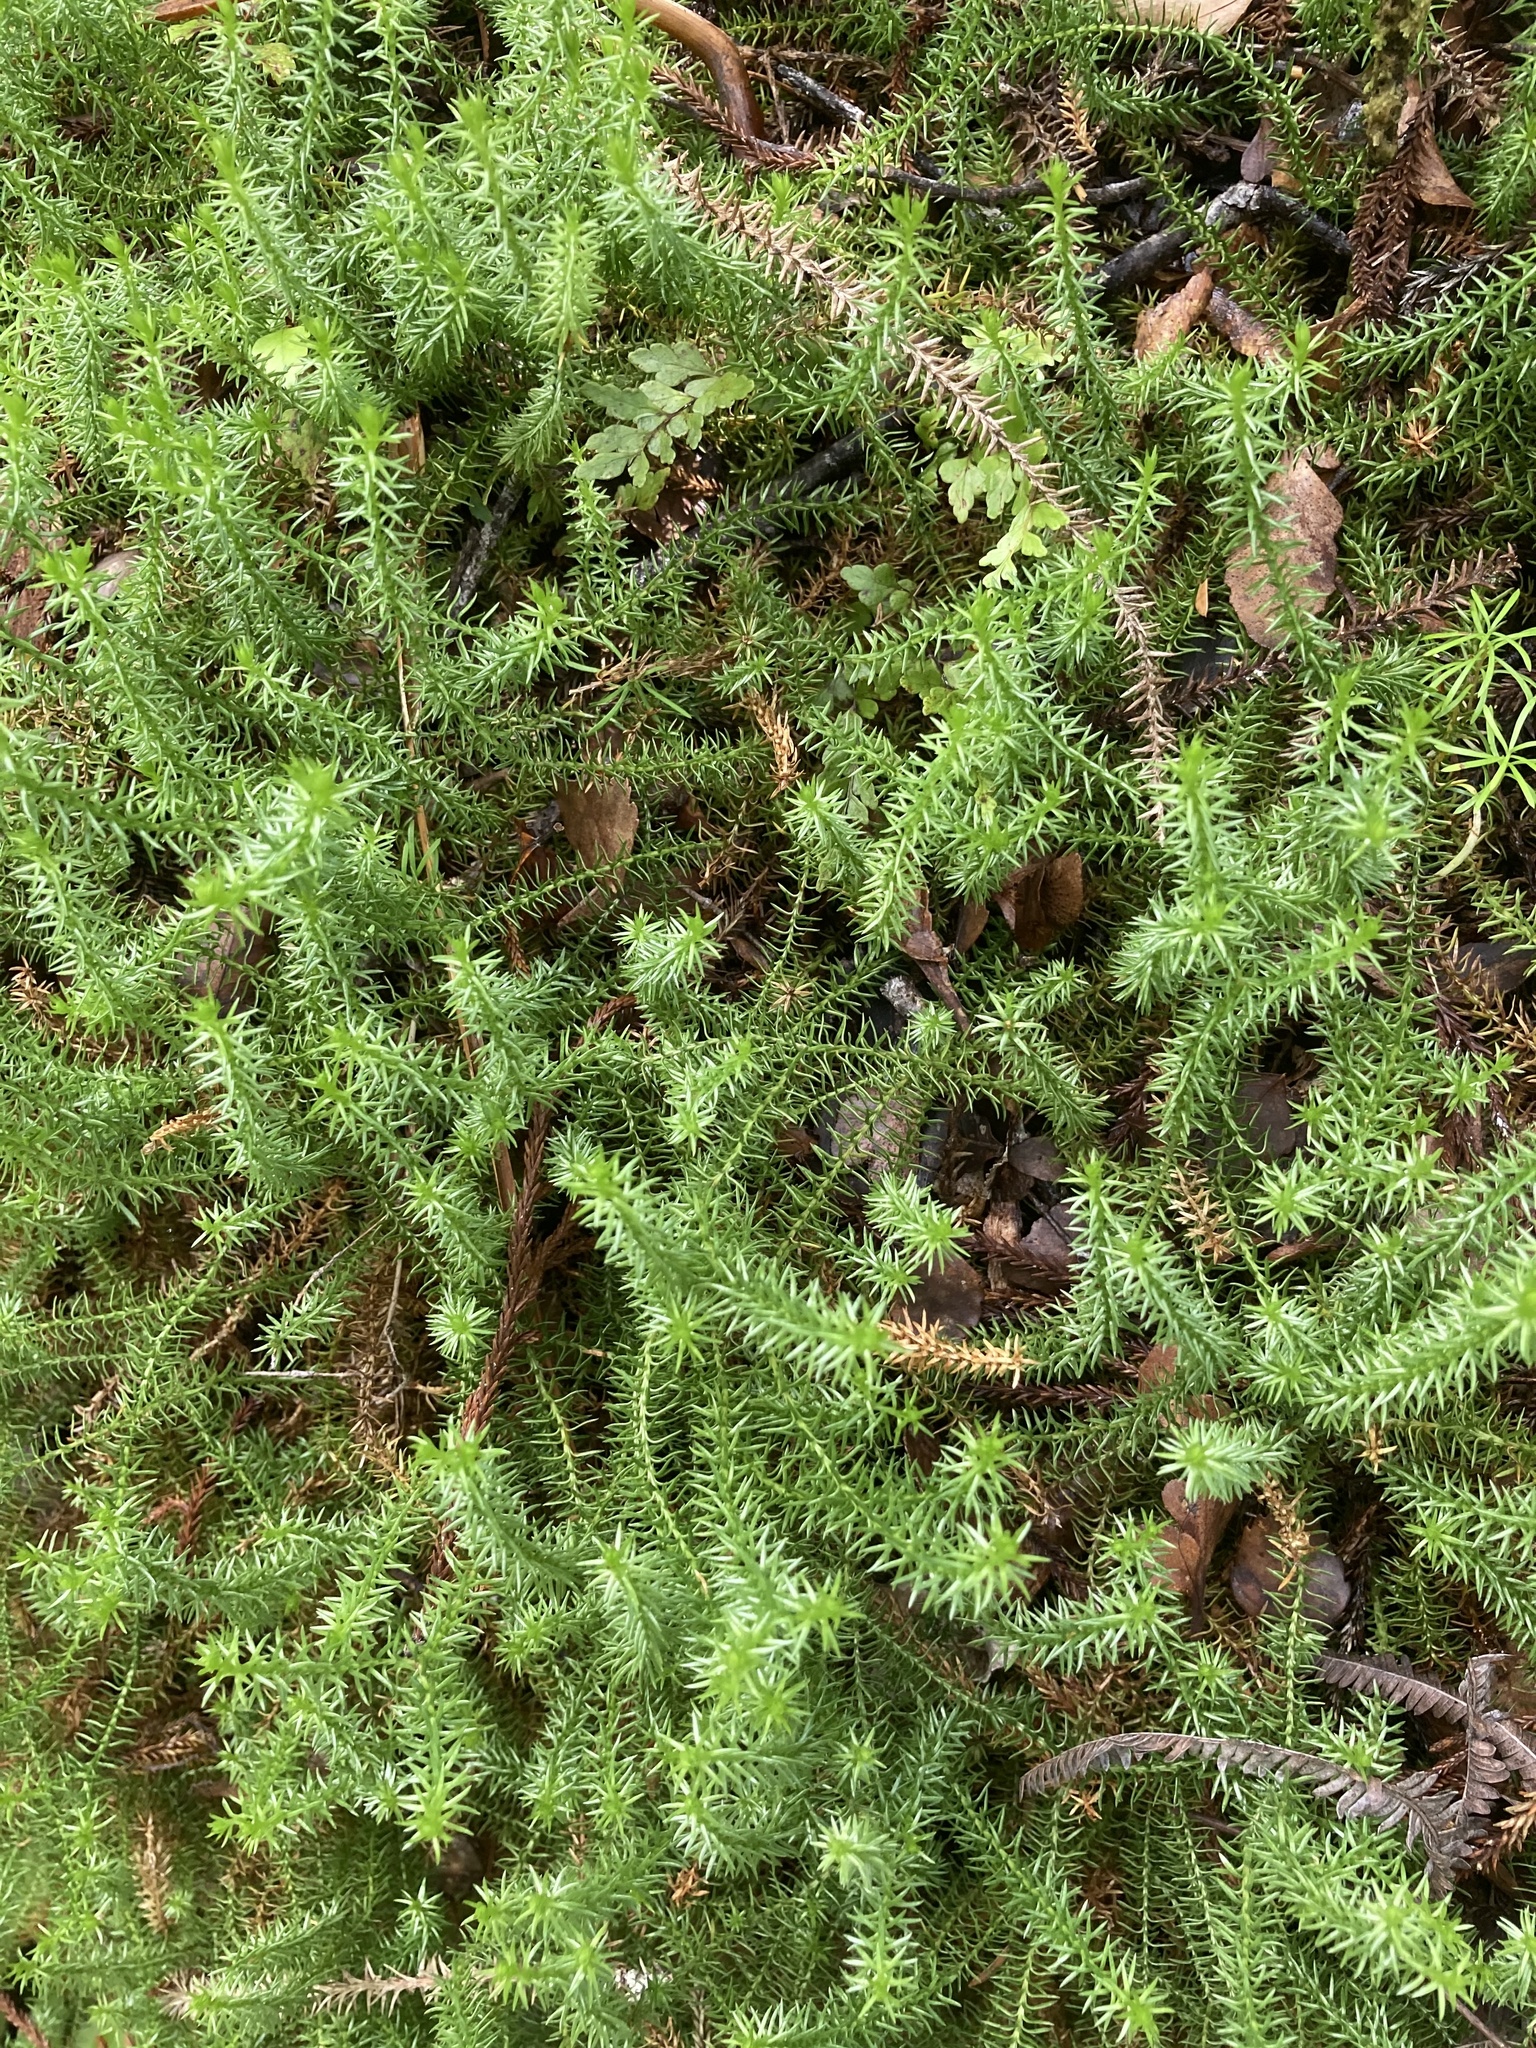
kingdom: Plantae
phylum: Tracheophyta
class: Lycopodiopsida
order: Lycopodiales
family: Lycopodiaceae
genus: Lateristachys
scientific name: Lateristachys lateralis
